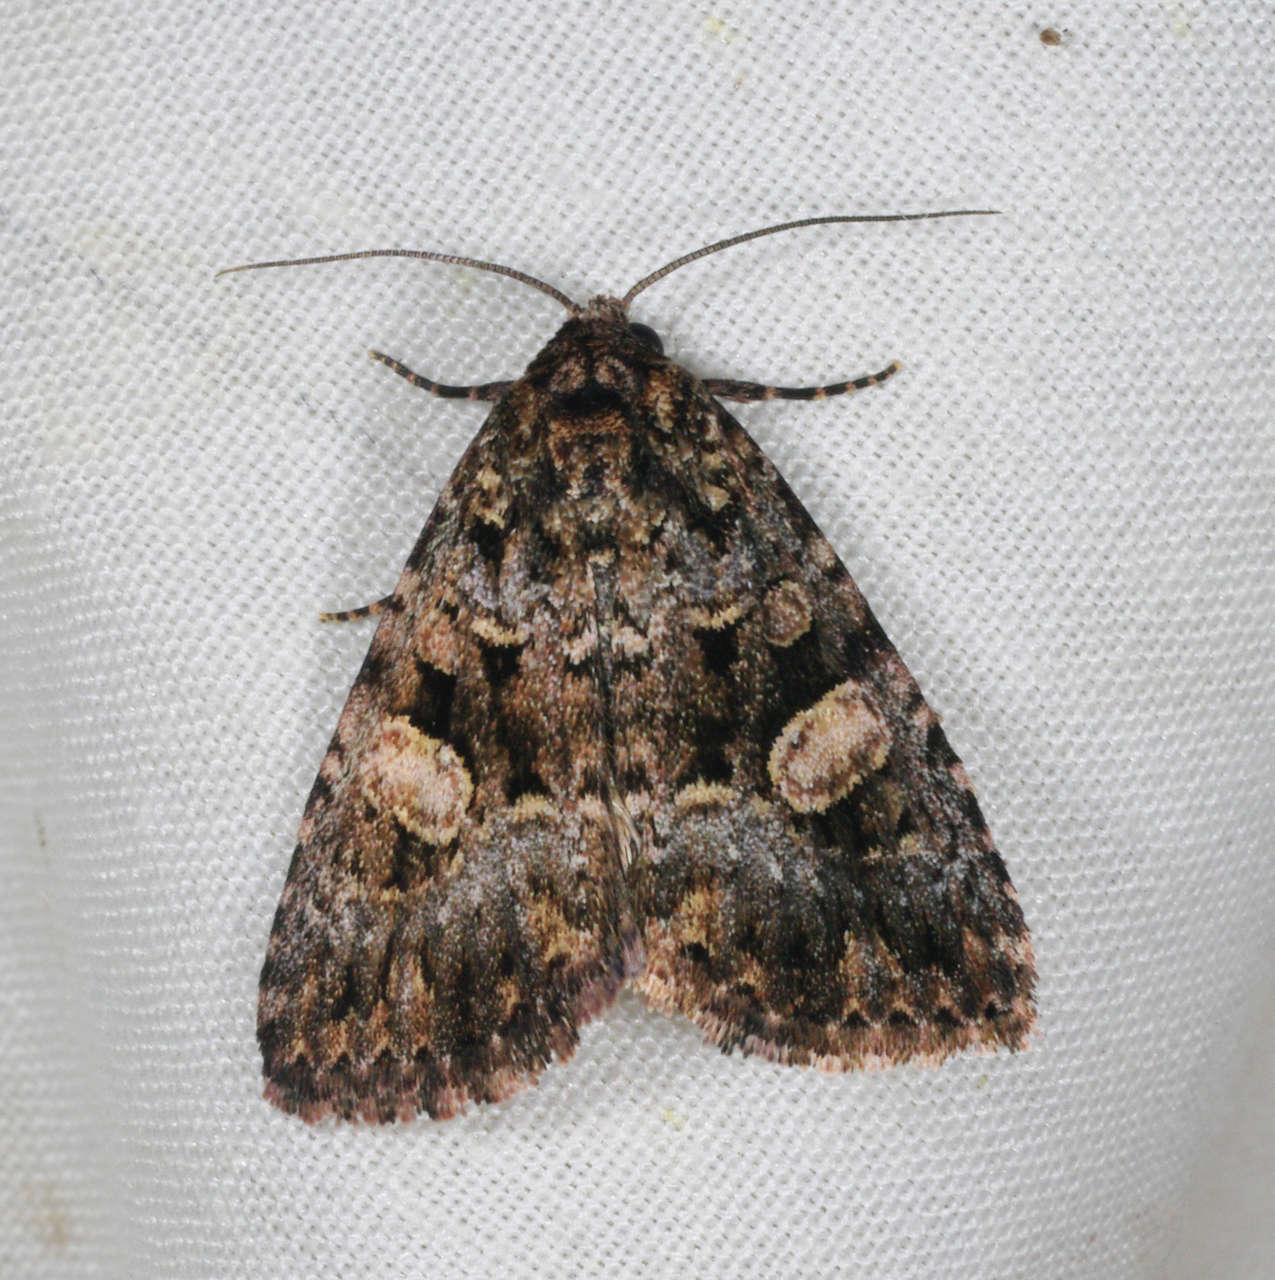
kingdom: Animalia
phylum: Arthropoda
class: Insecta
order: Lepidoptera
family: Noctuidae
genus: Condica
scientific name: Condica
